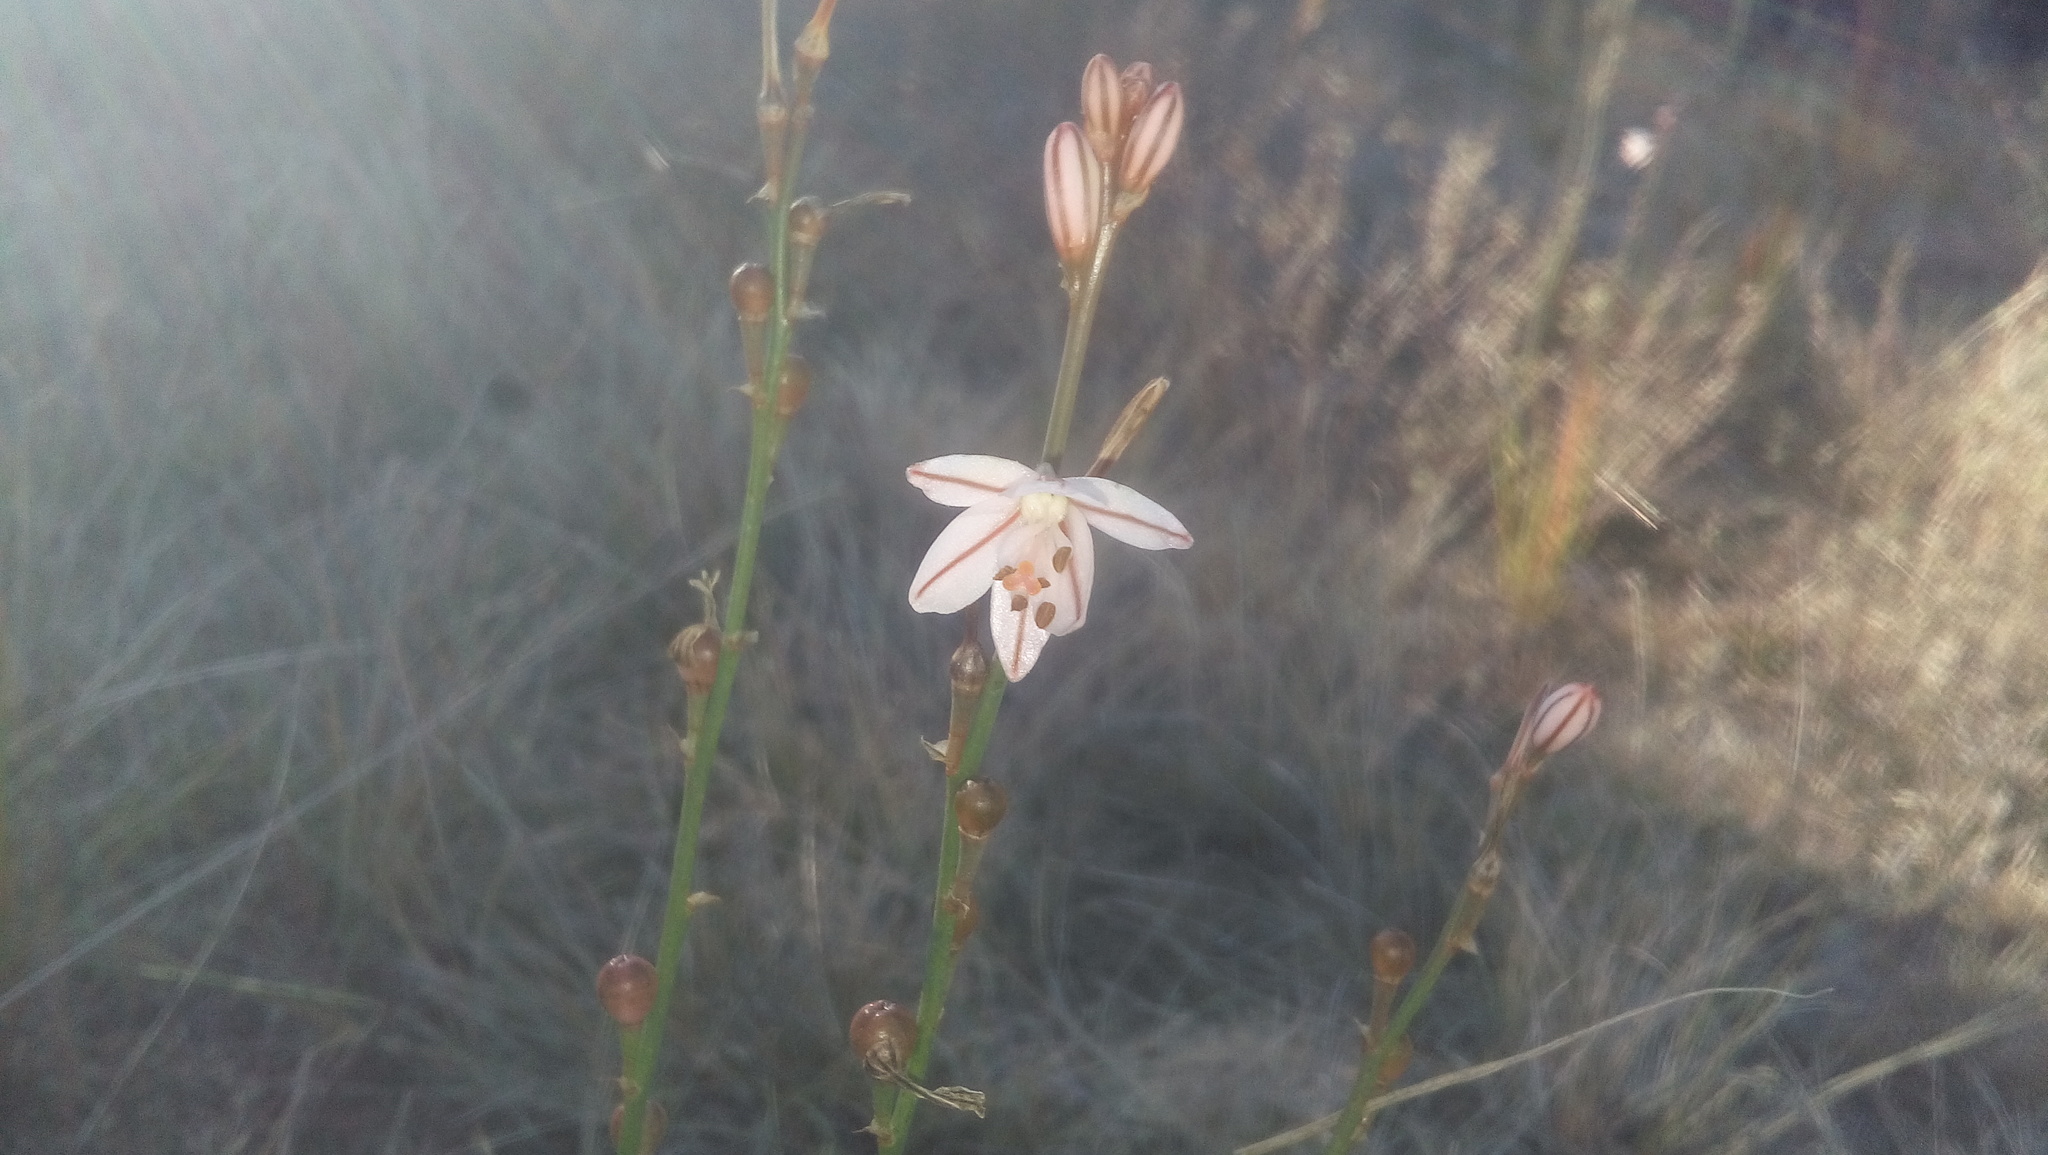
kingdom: Plantae
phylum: Tracheophyta
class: Liliopsida
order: Asparagales
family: Asphodelaceae
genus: Asphodelus
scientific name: Asphodelus fistulosus
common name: Onionweed
